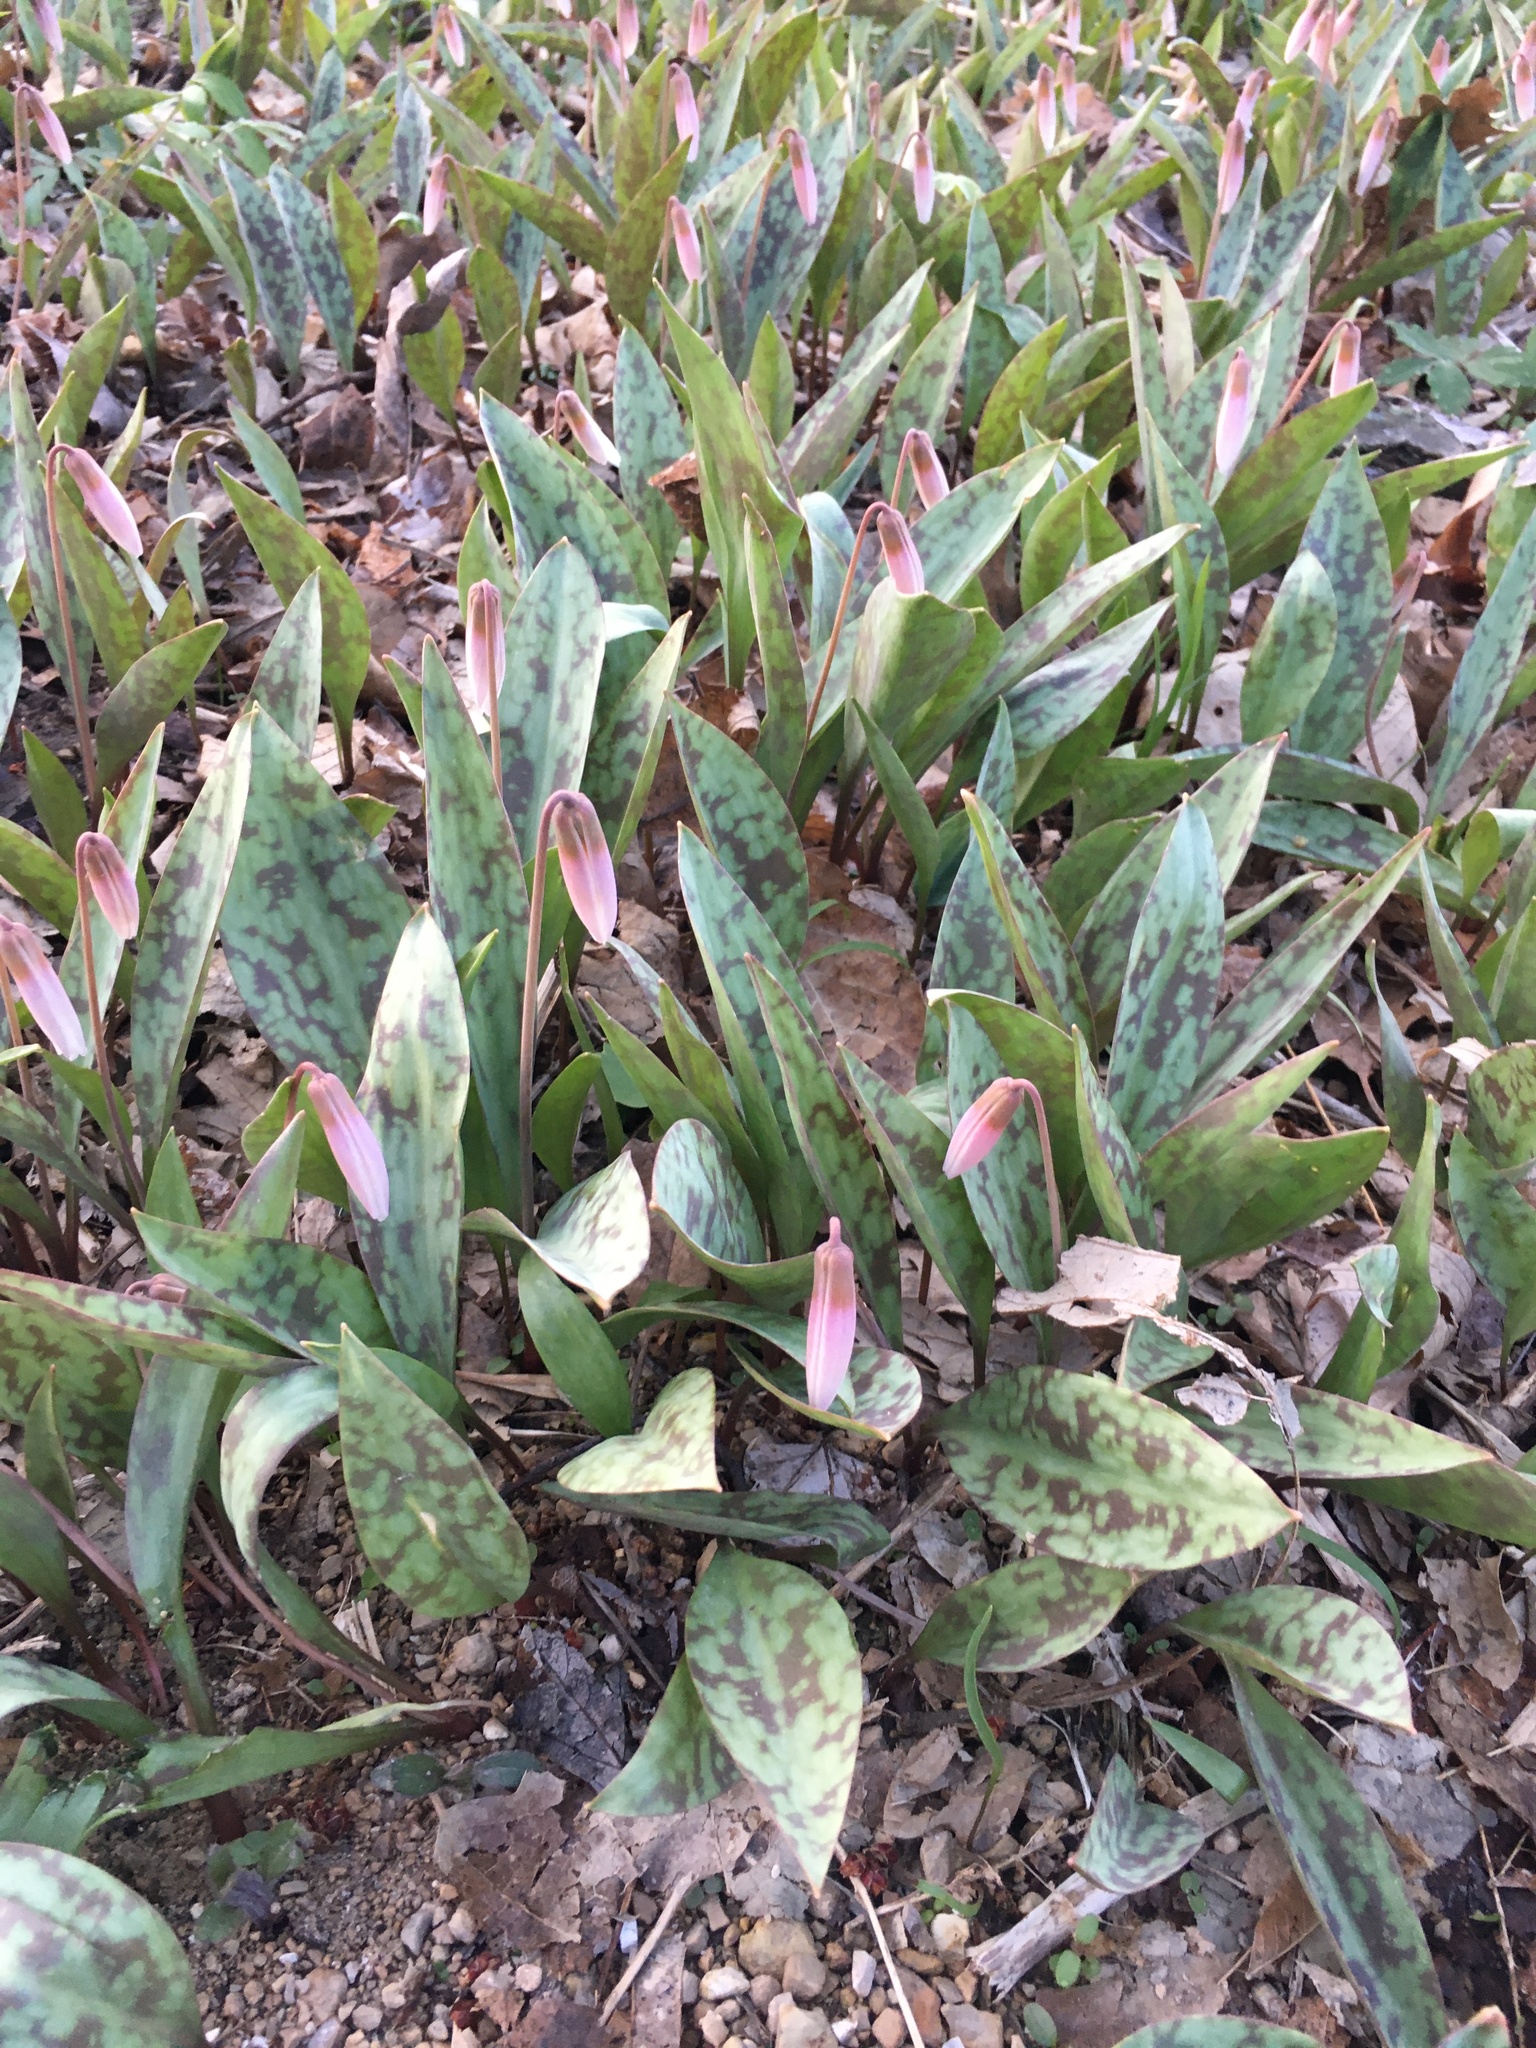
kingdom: Plantae
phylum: Tracheophyta
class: Liliopsida
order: Liliales
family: Liliaceae
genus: Erythronium
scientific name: Erythronium albidum
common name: White trout-lily
